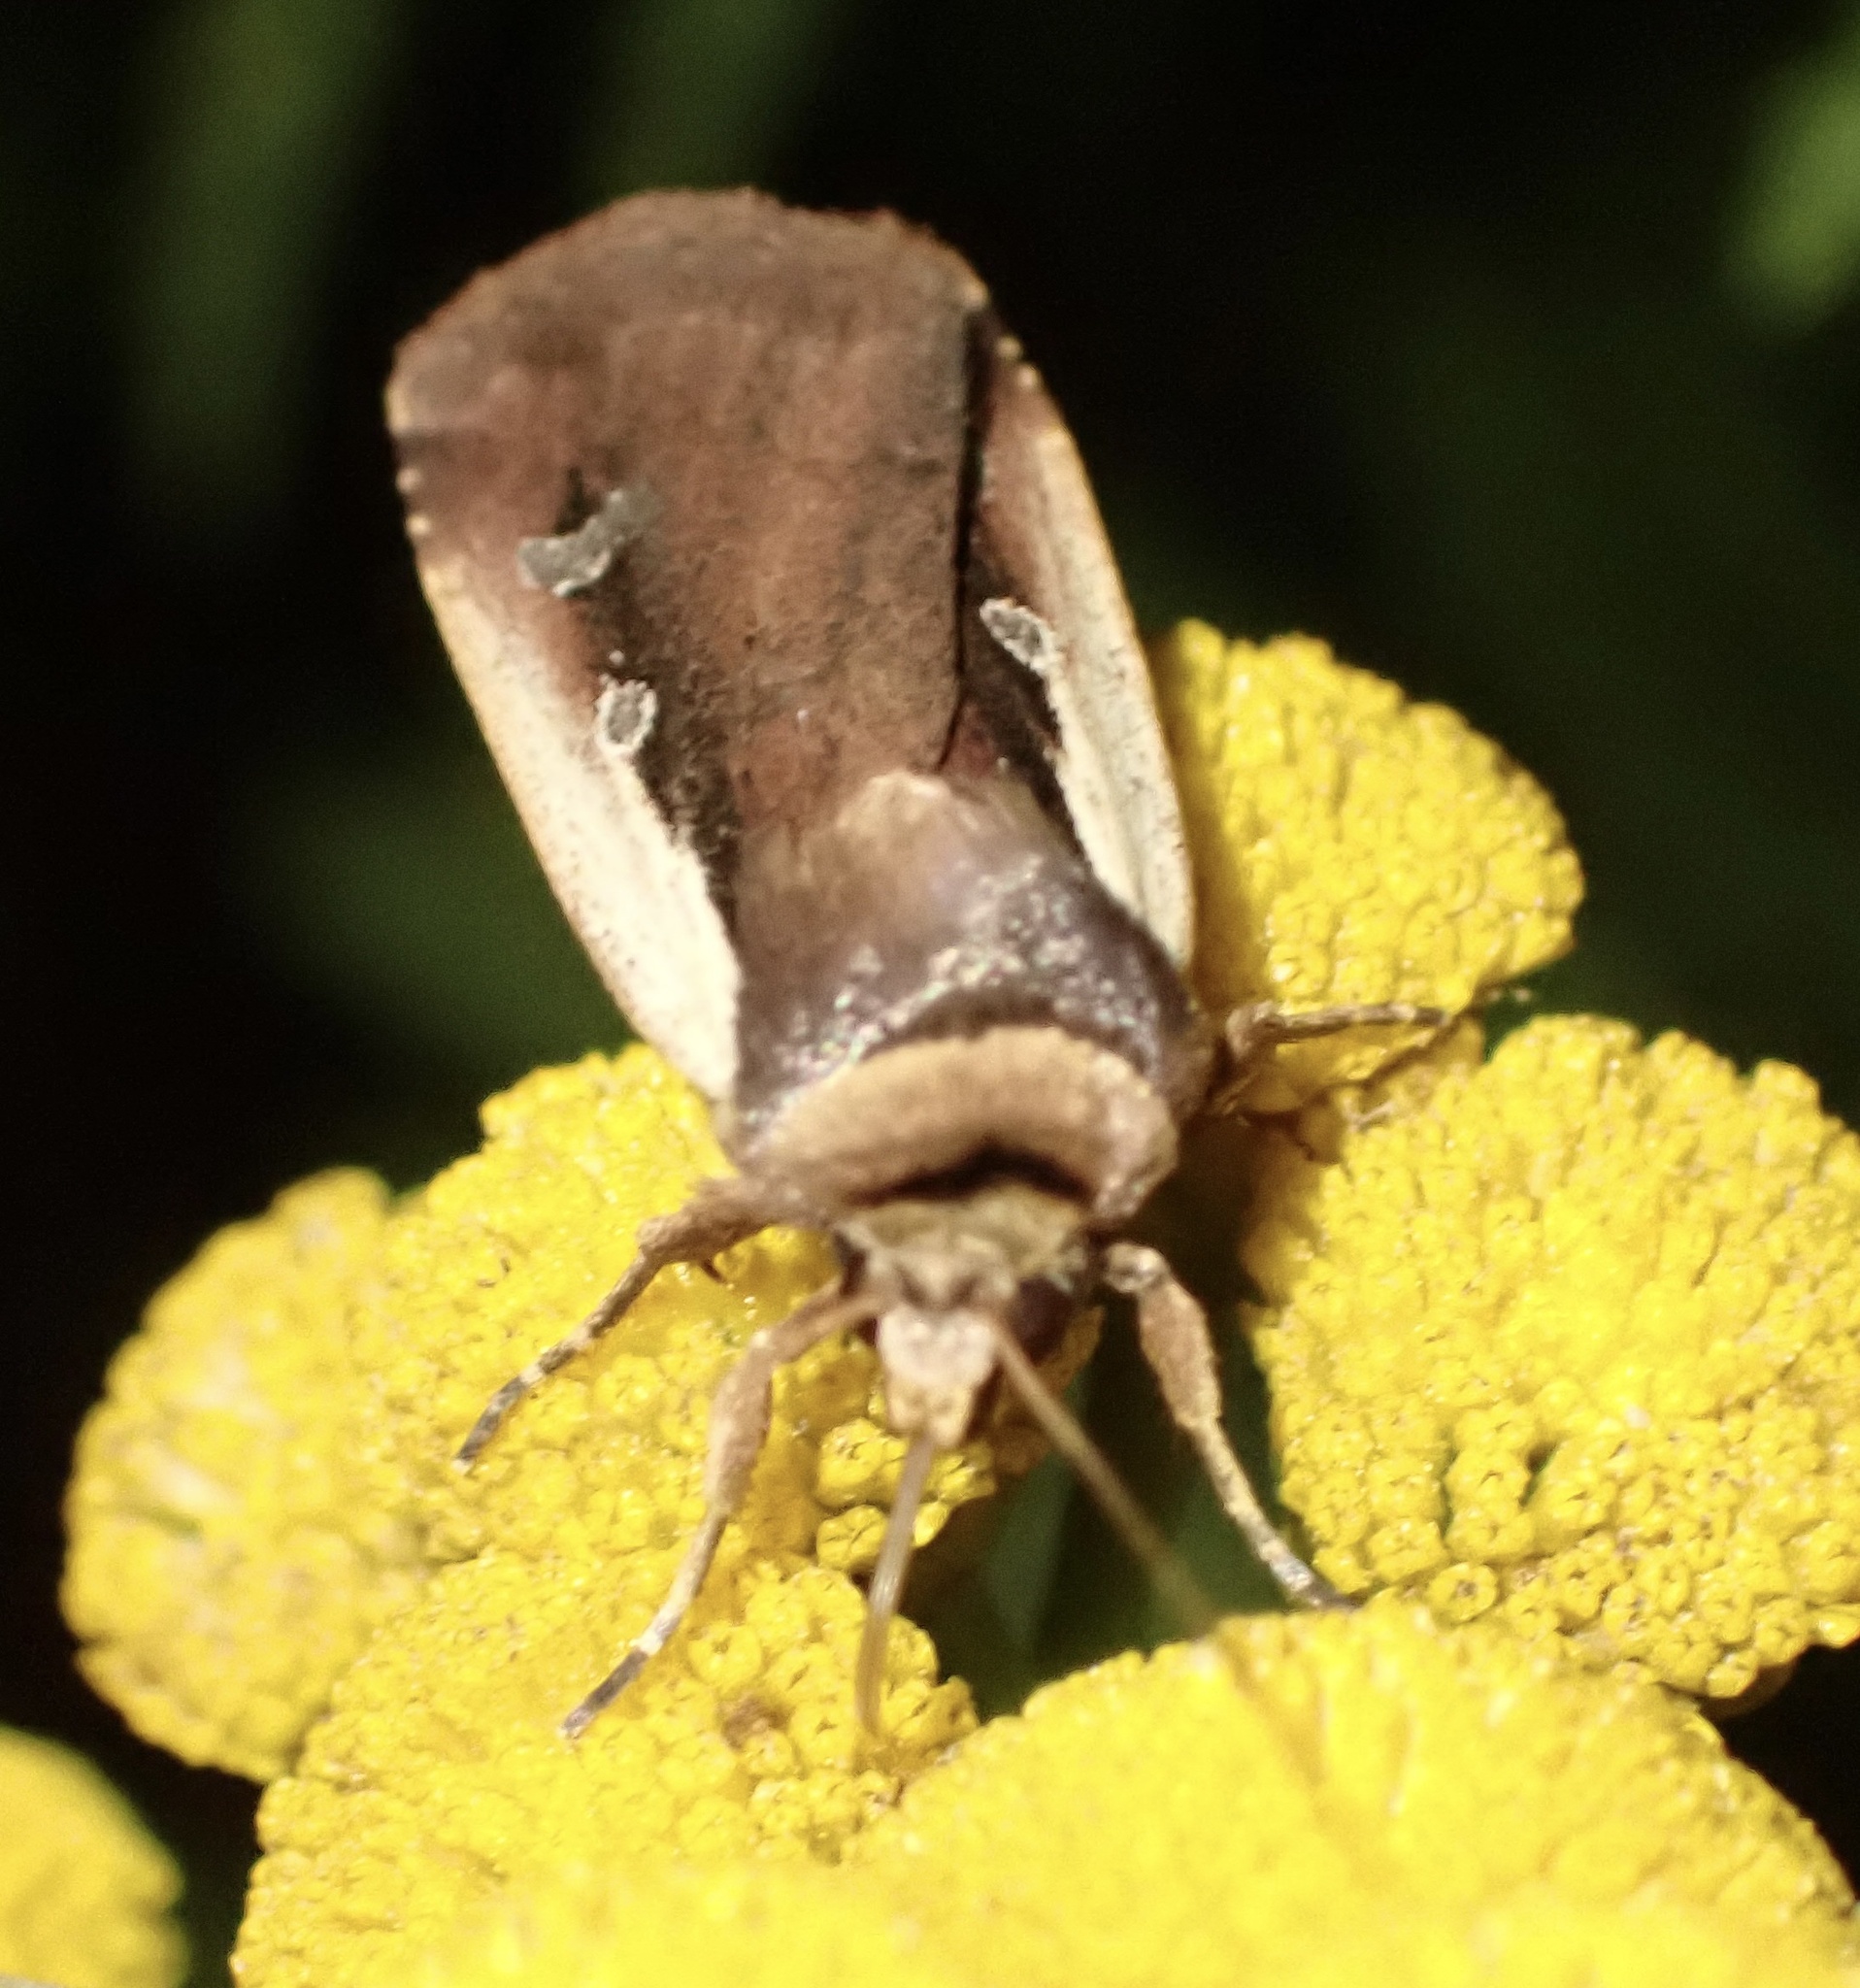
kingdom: Animalia
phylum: Arthropoda
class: Insecta
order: Lepidoptera
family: Noctuidae
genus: Ochropleura
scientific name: Ochropleura plecta
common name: Flame shoulder
